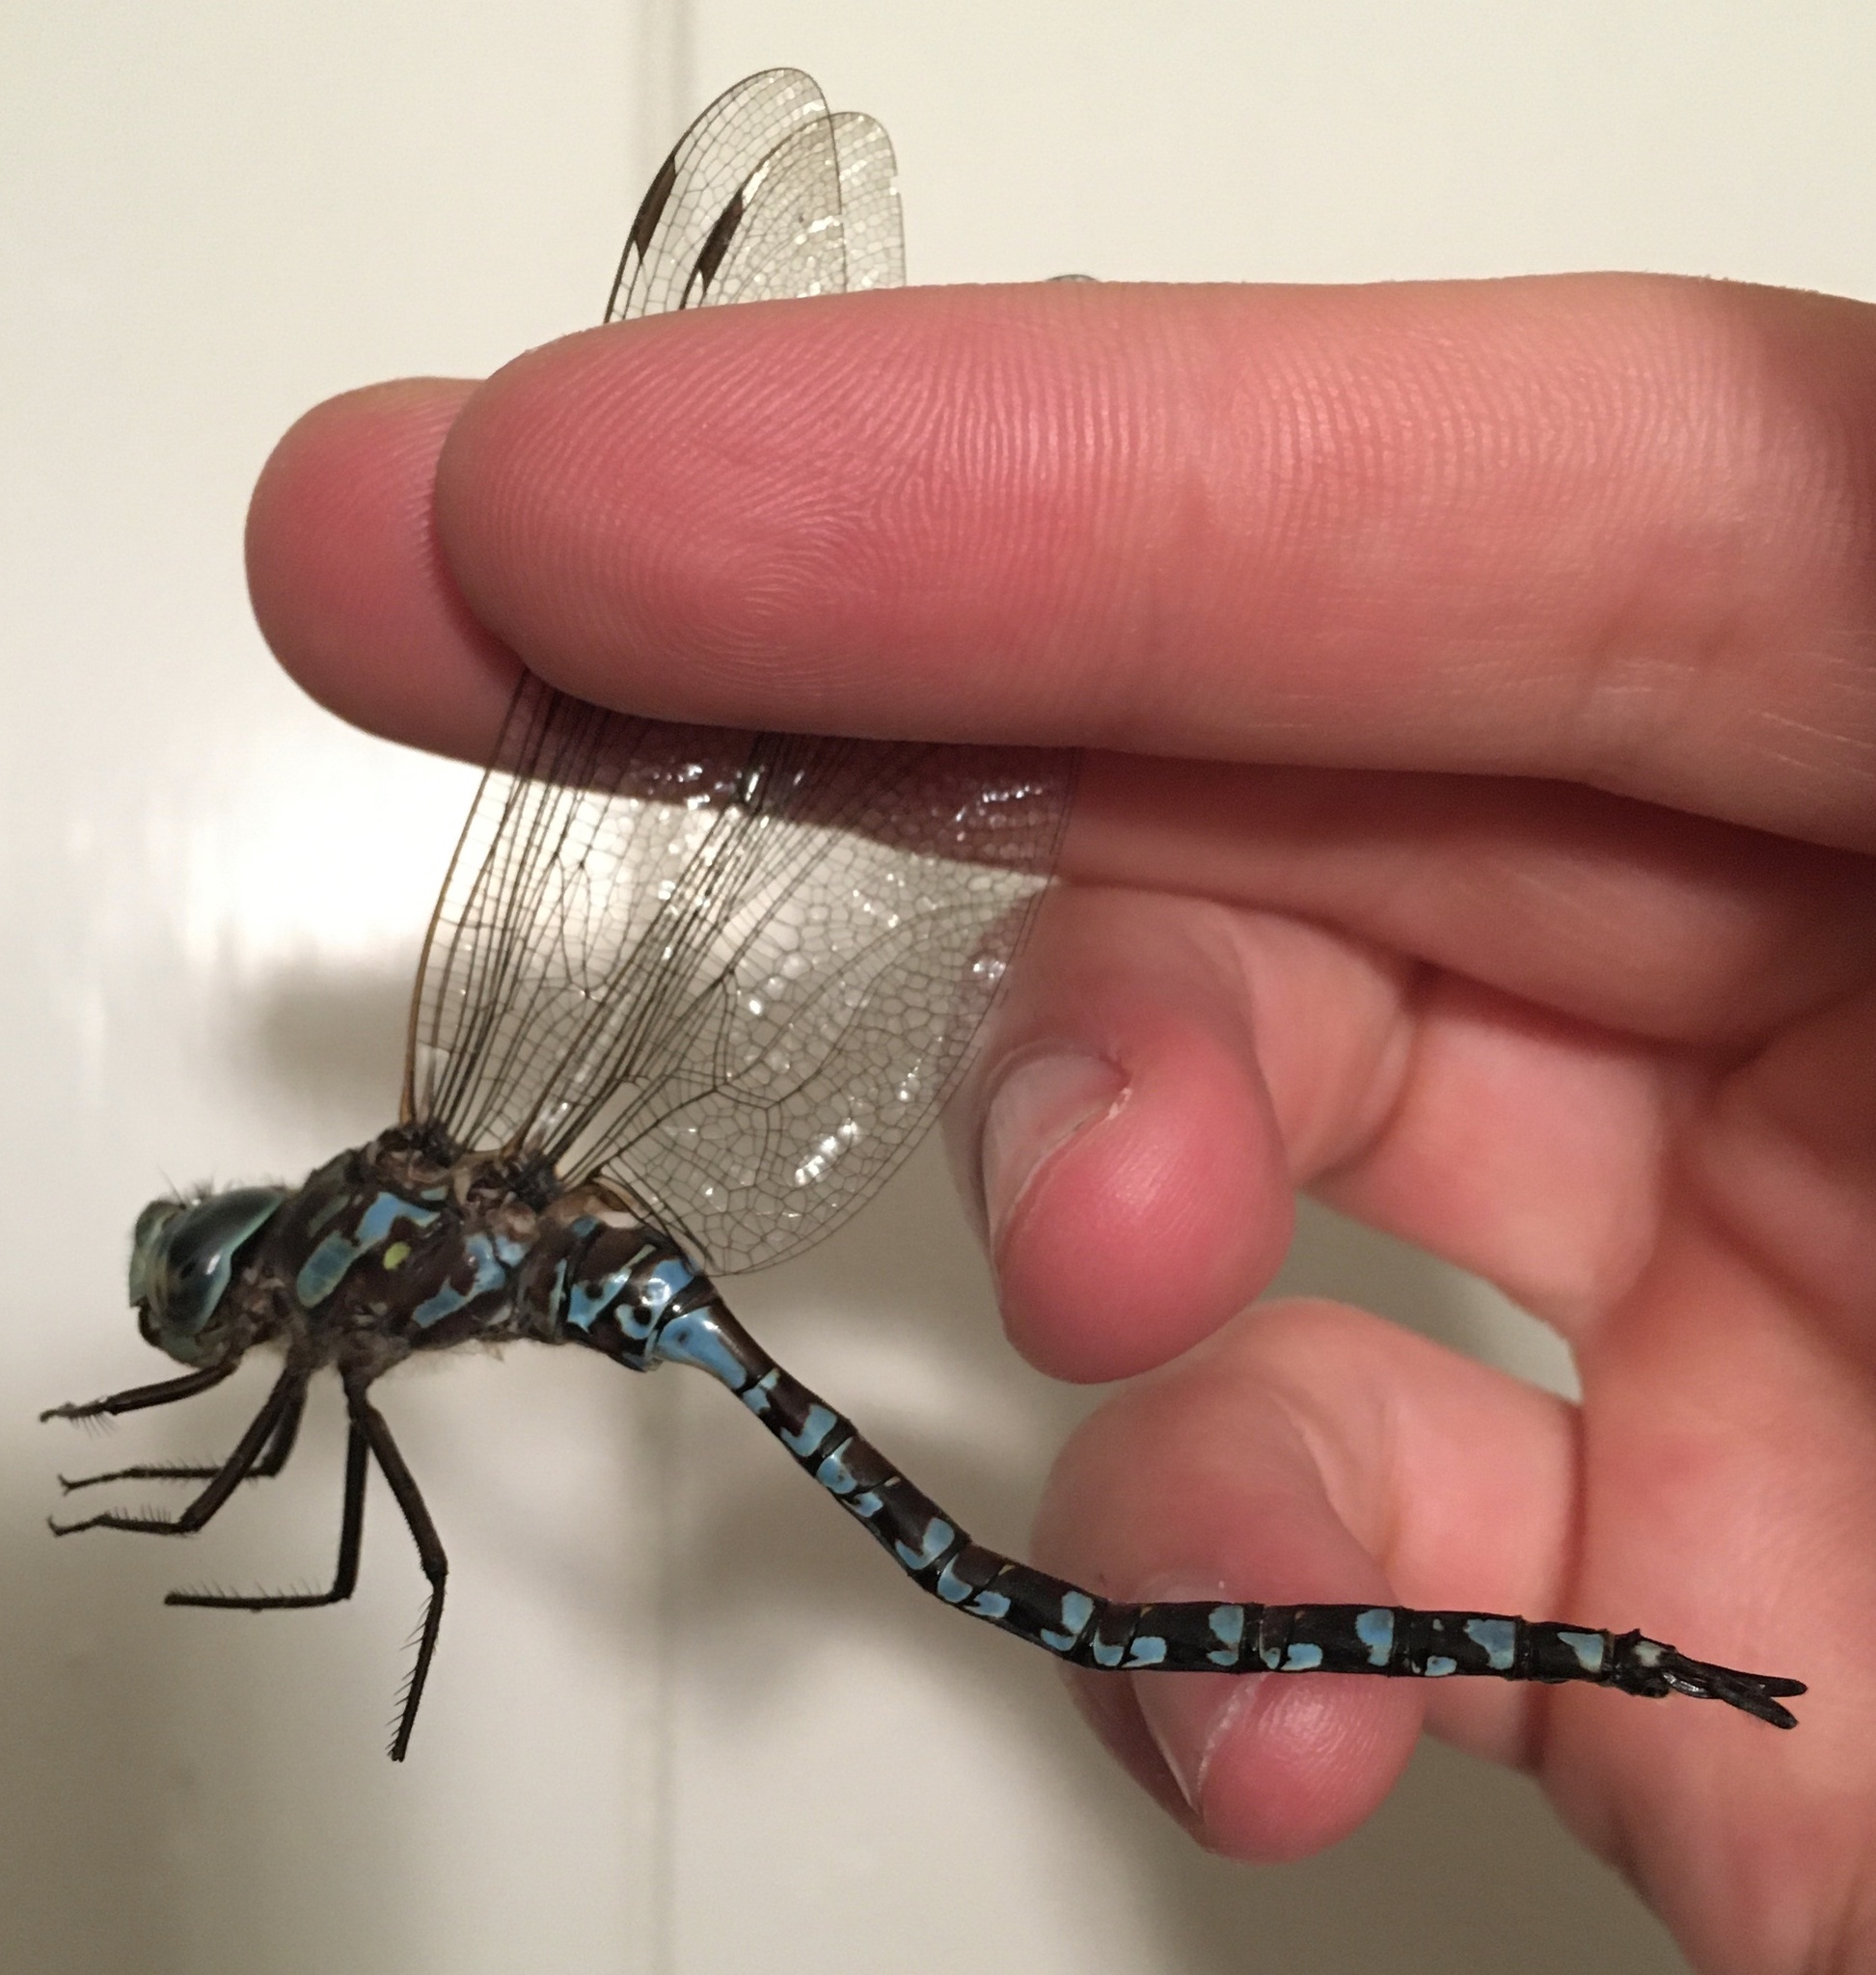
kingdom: Animalia
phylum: Arthropoda
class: Insecta
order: Odonata
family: Aeshnidae
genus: Aeshna
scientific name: Aeshna canadensis
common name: Canada darner
